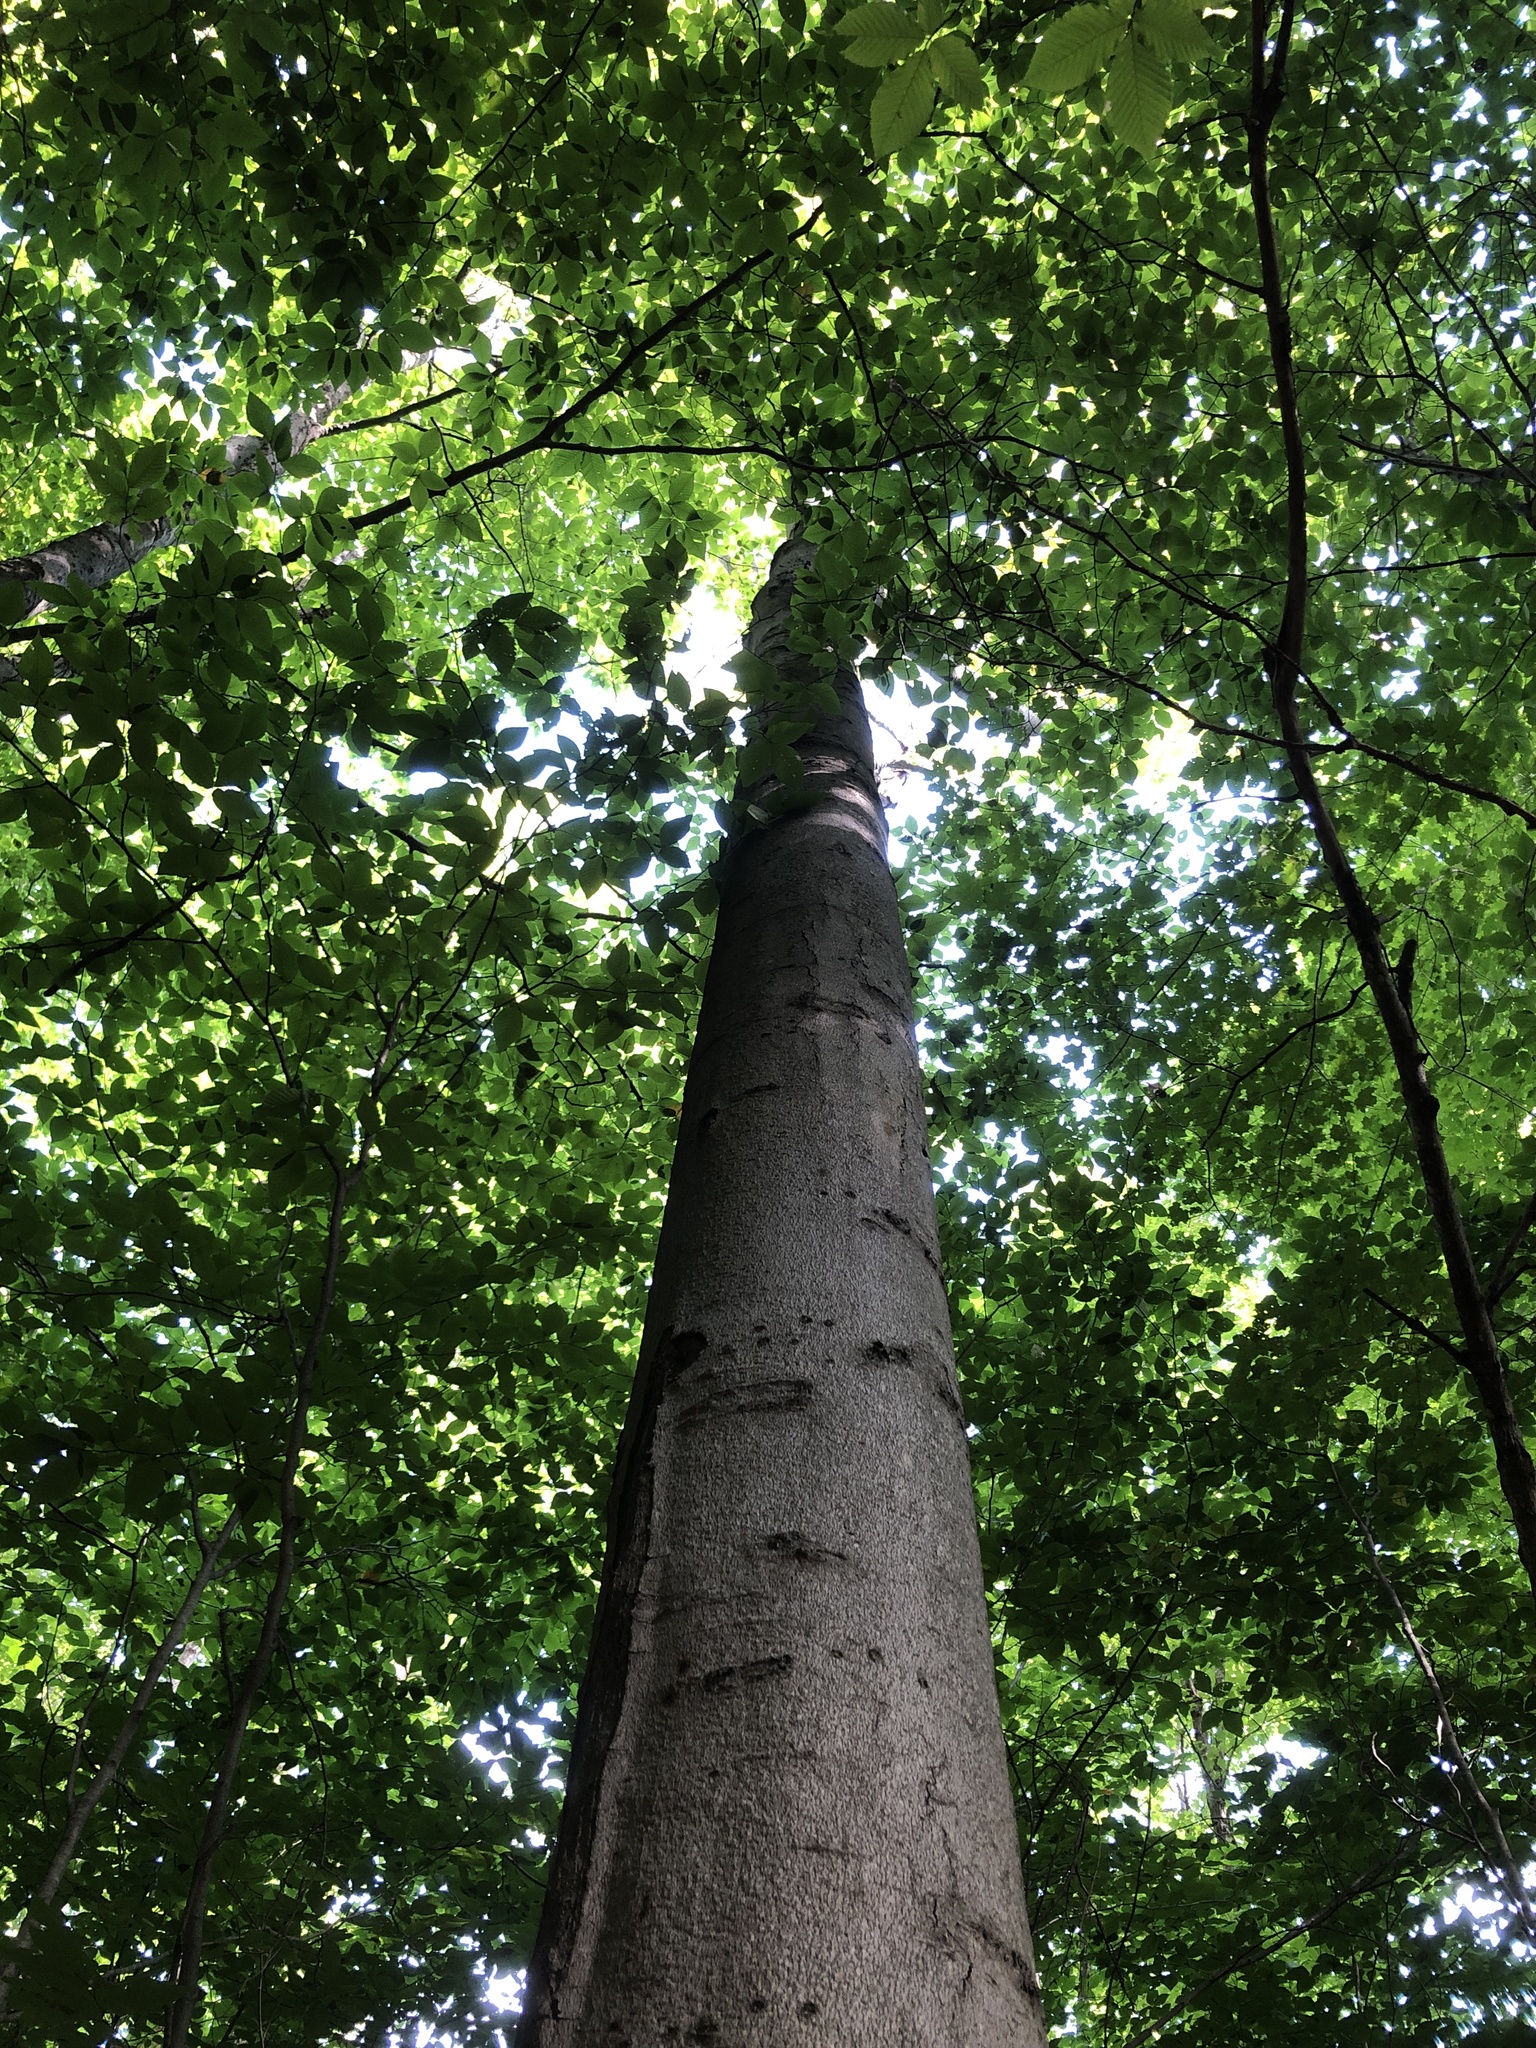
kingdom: Plantae
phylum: Tracheophyta
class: Magnoliopsida
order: Fagales
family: Fagaceae
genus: Fagus
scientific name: Fagus grandifolia
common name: American beech
